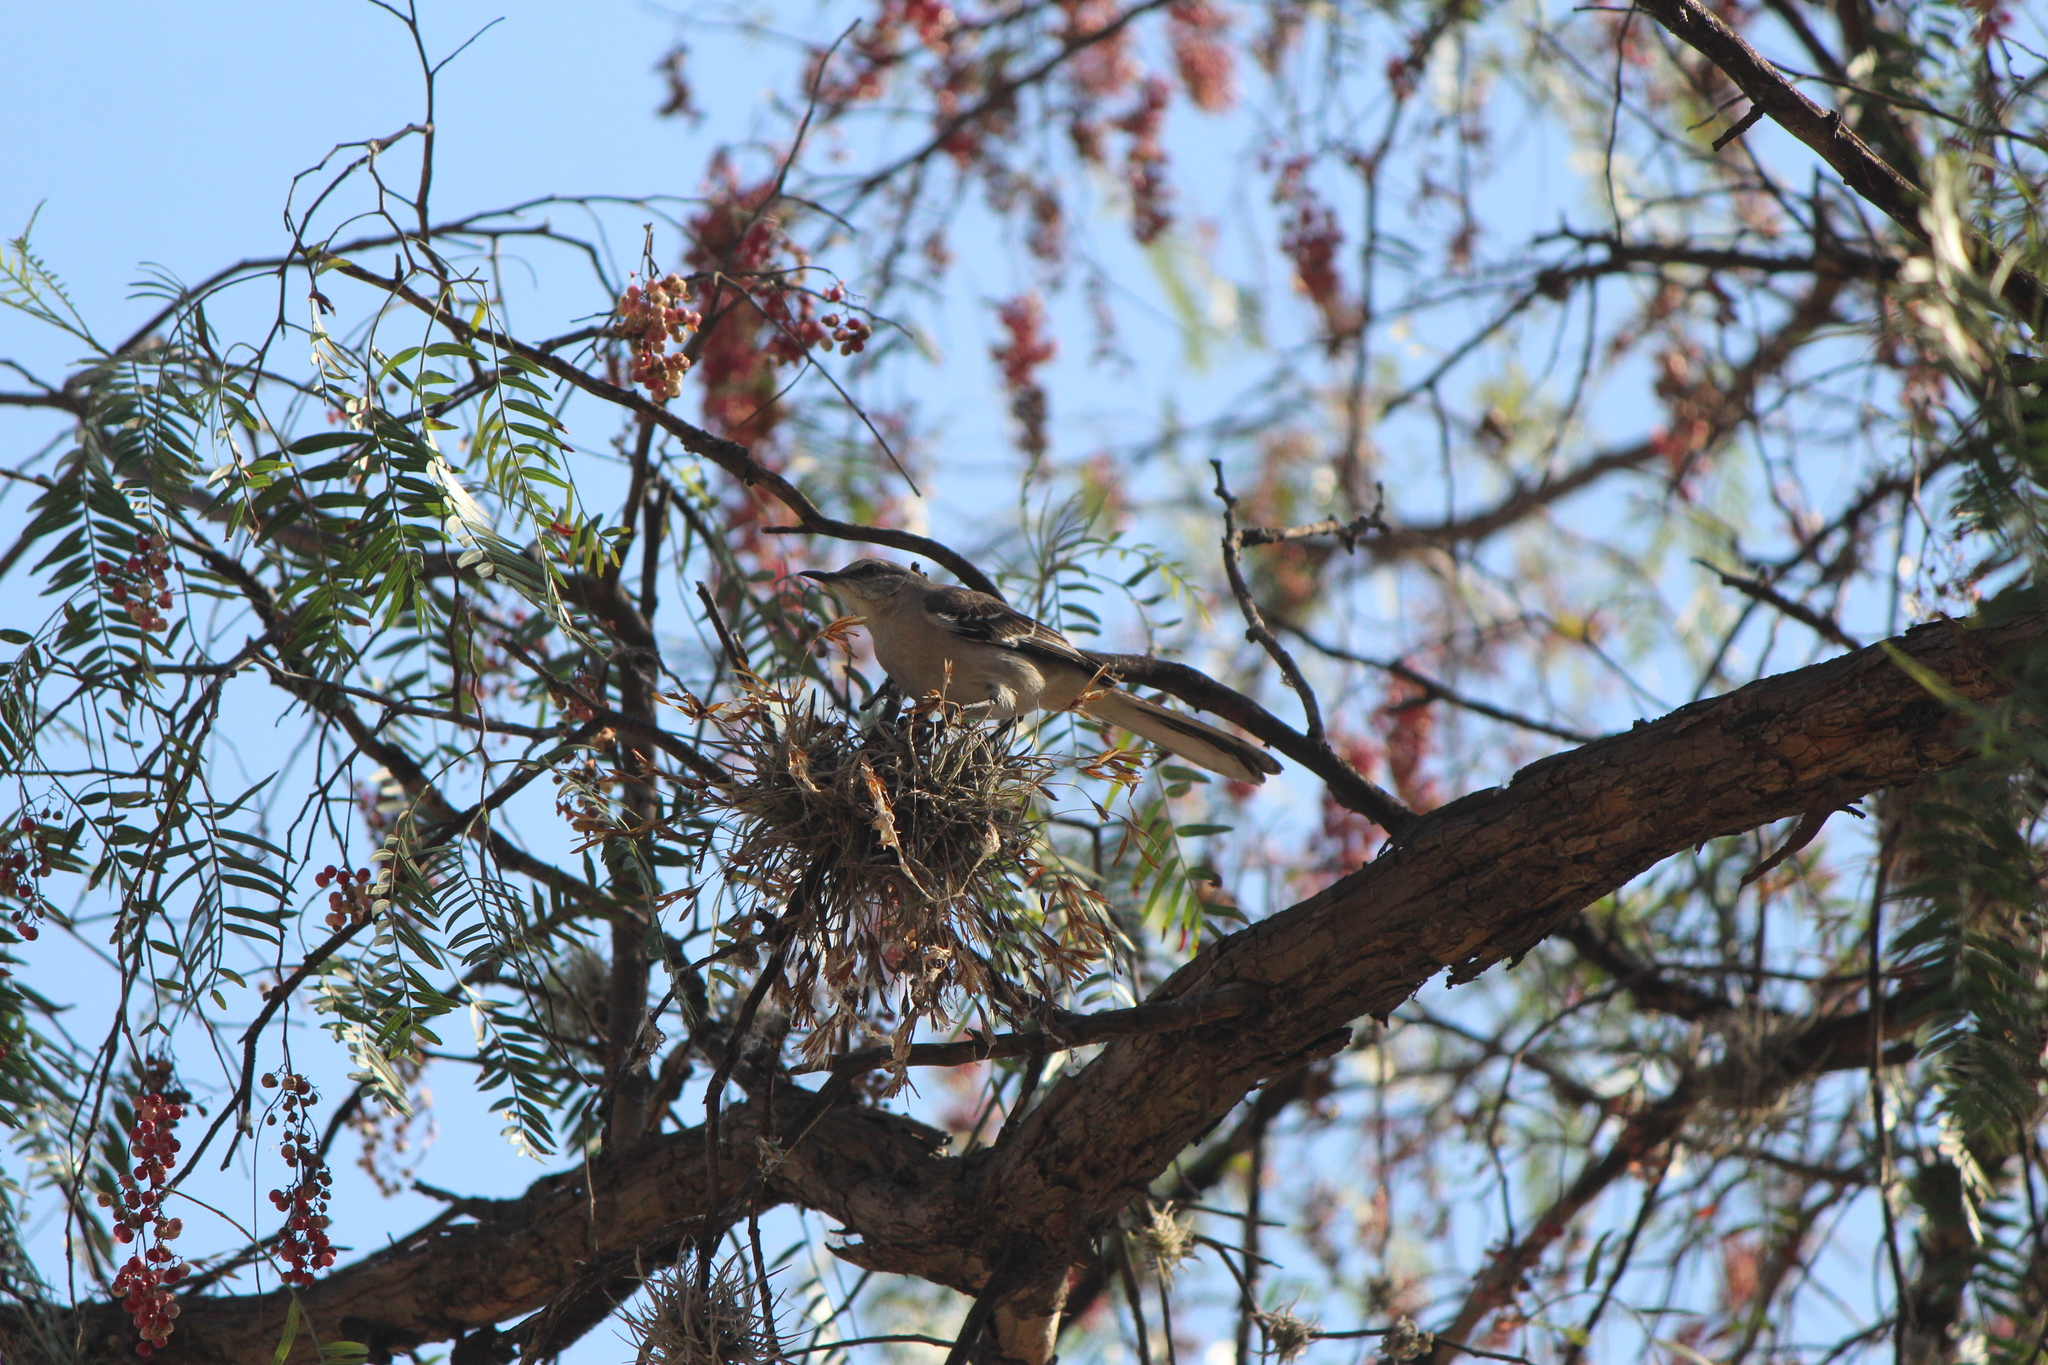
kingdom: Animalia
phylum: Chordata
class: Aves
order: Passeriformes
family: Mimidae
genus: Mimus
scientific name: Mimus polyglottos
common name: Northern mockingbird
